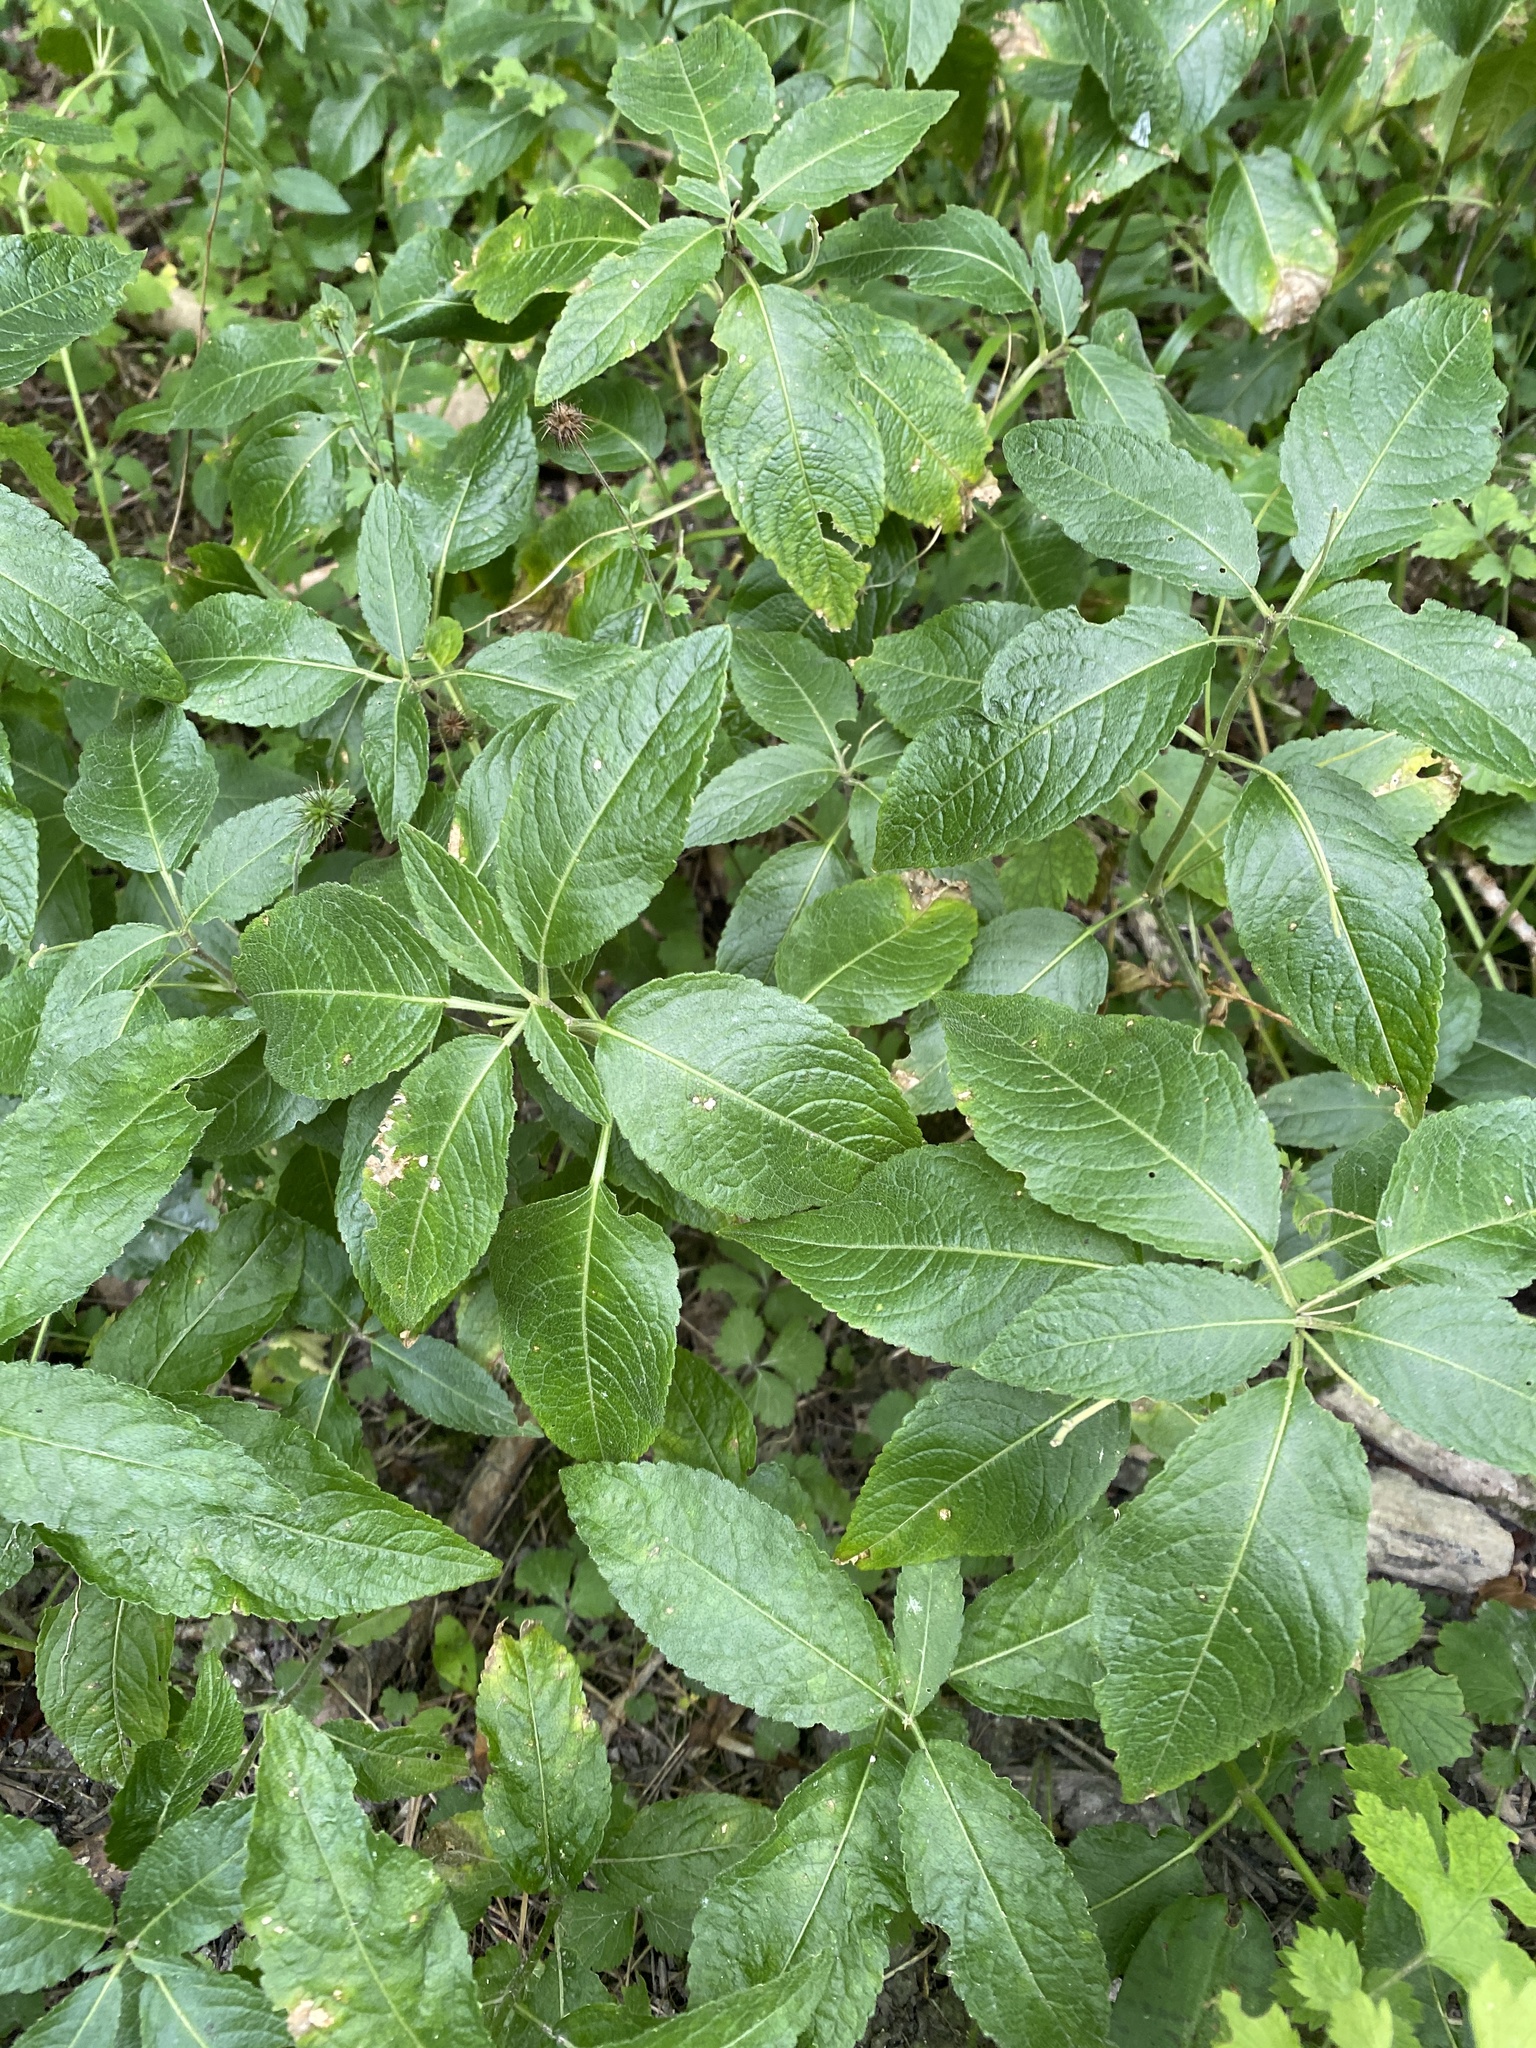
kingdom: Plantae
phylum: Tracheophyta
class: Magnoliopsida
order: Malpighiales
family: Euphorbiaceae
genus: Mercurialis
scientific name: Mercurialis perennis
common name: Dog mercury
